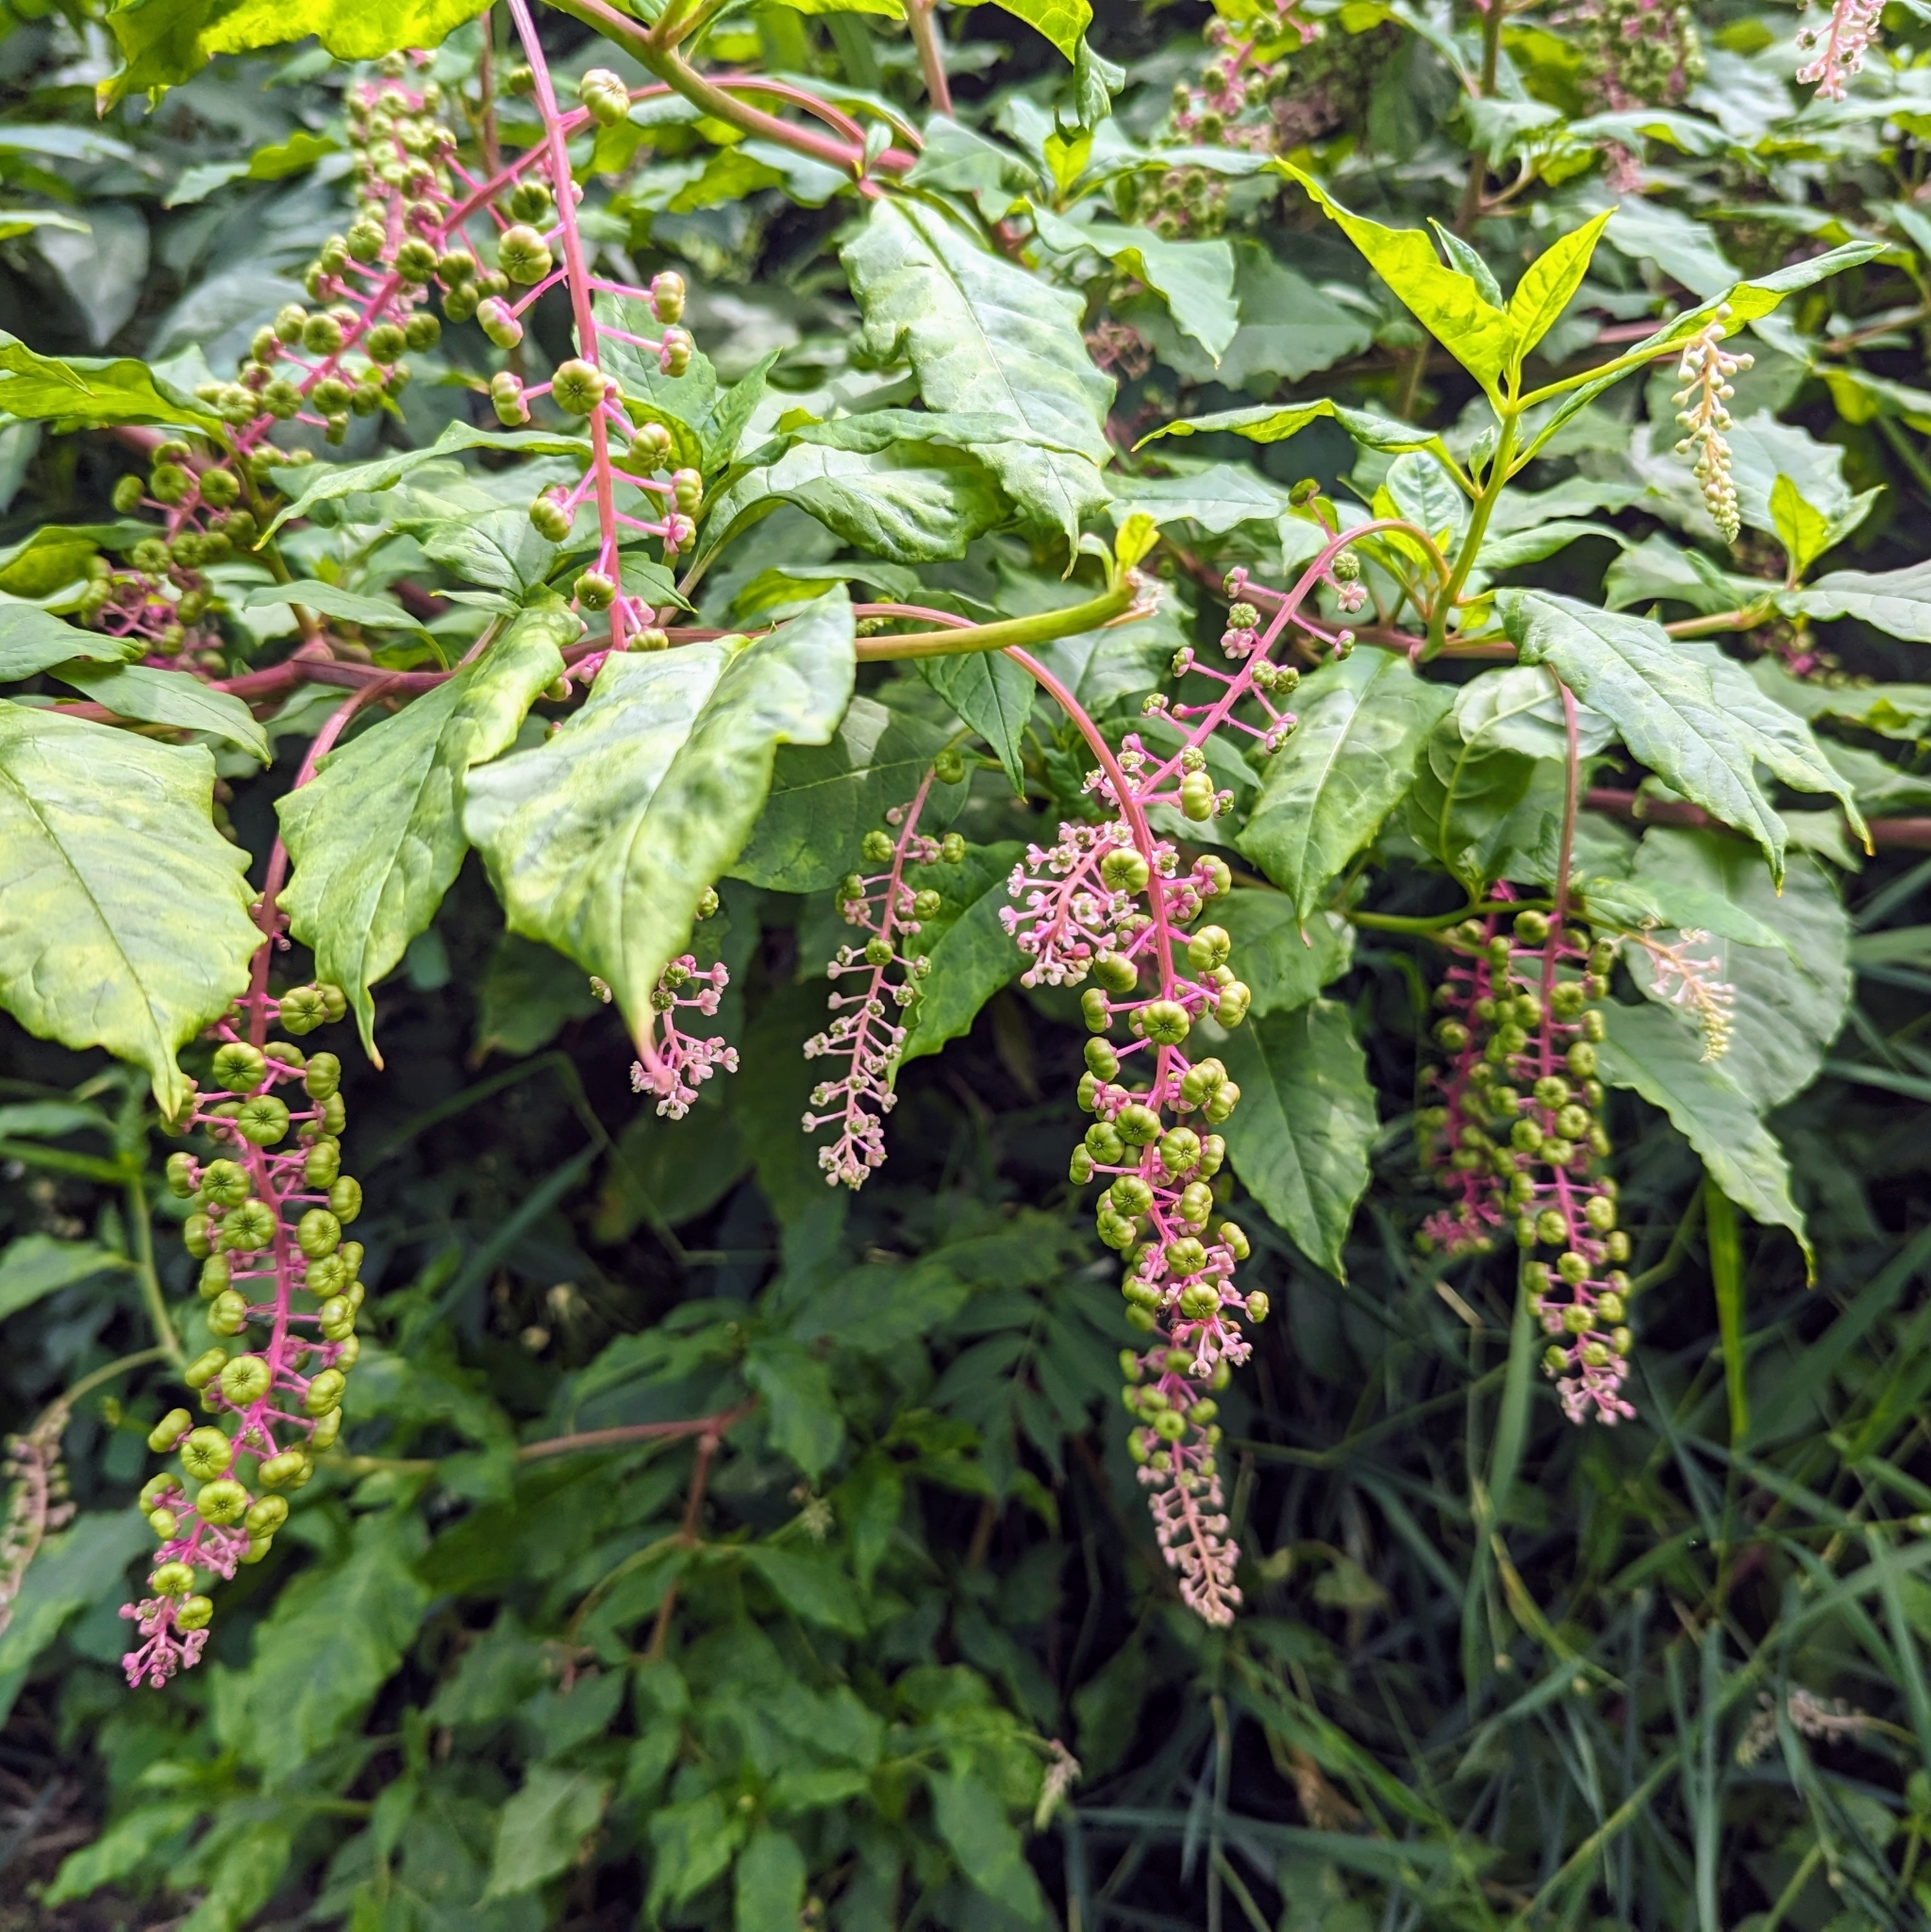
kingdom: Plantae
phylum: Tracheophyta
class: Magnoliopsida
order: Caryophyllales
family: Phytolaccaceae
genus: Phytolacca
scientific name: Phytolacca americana
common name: American pokeweed
